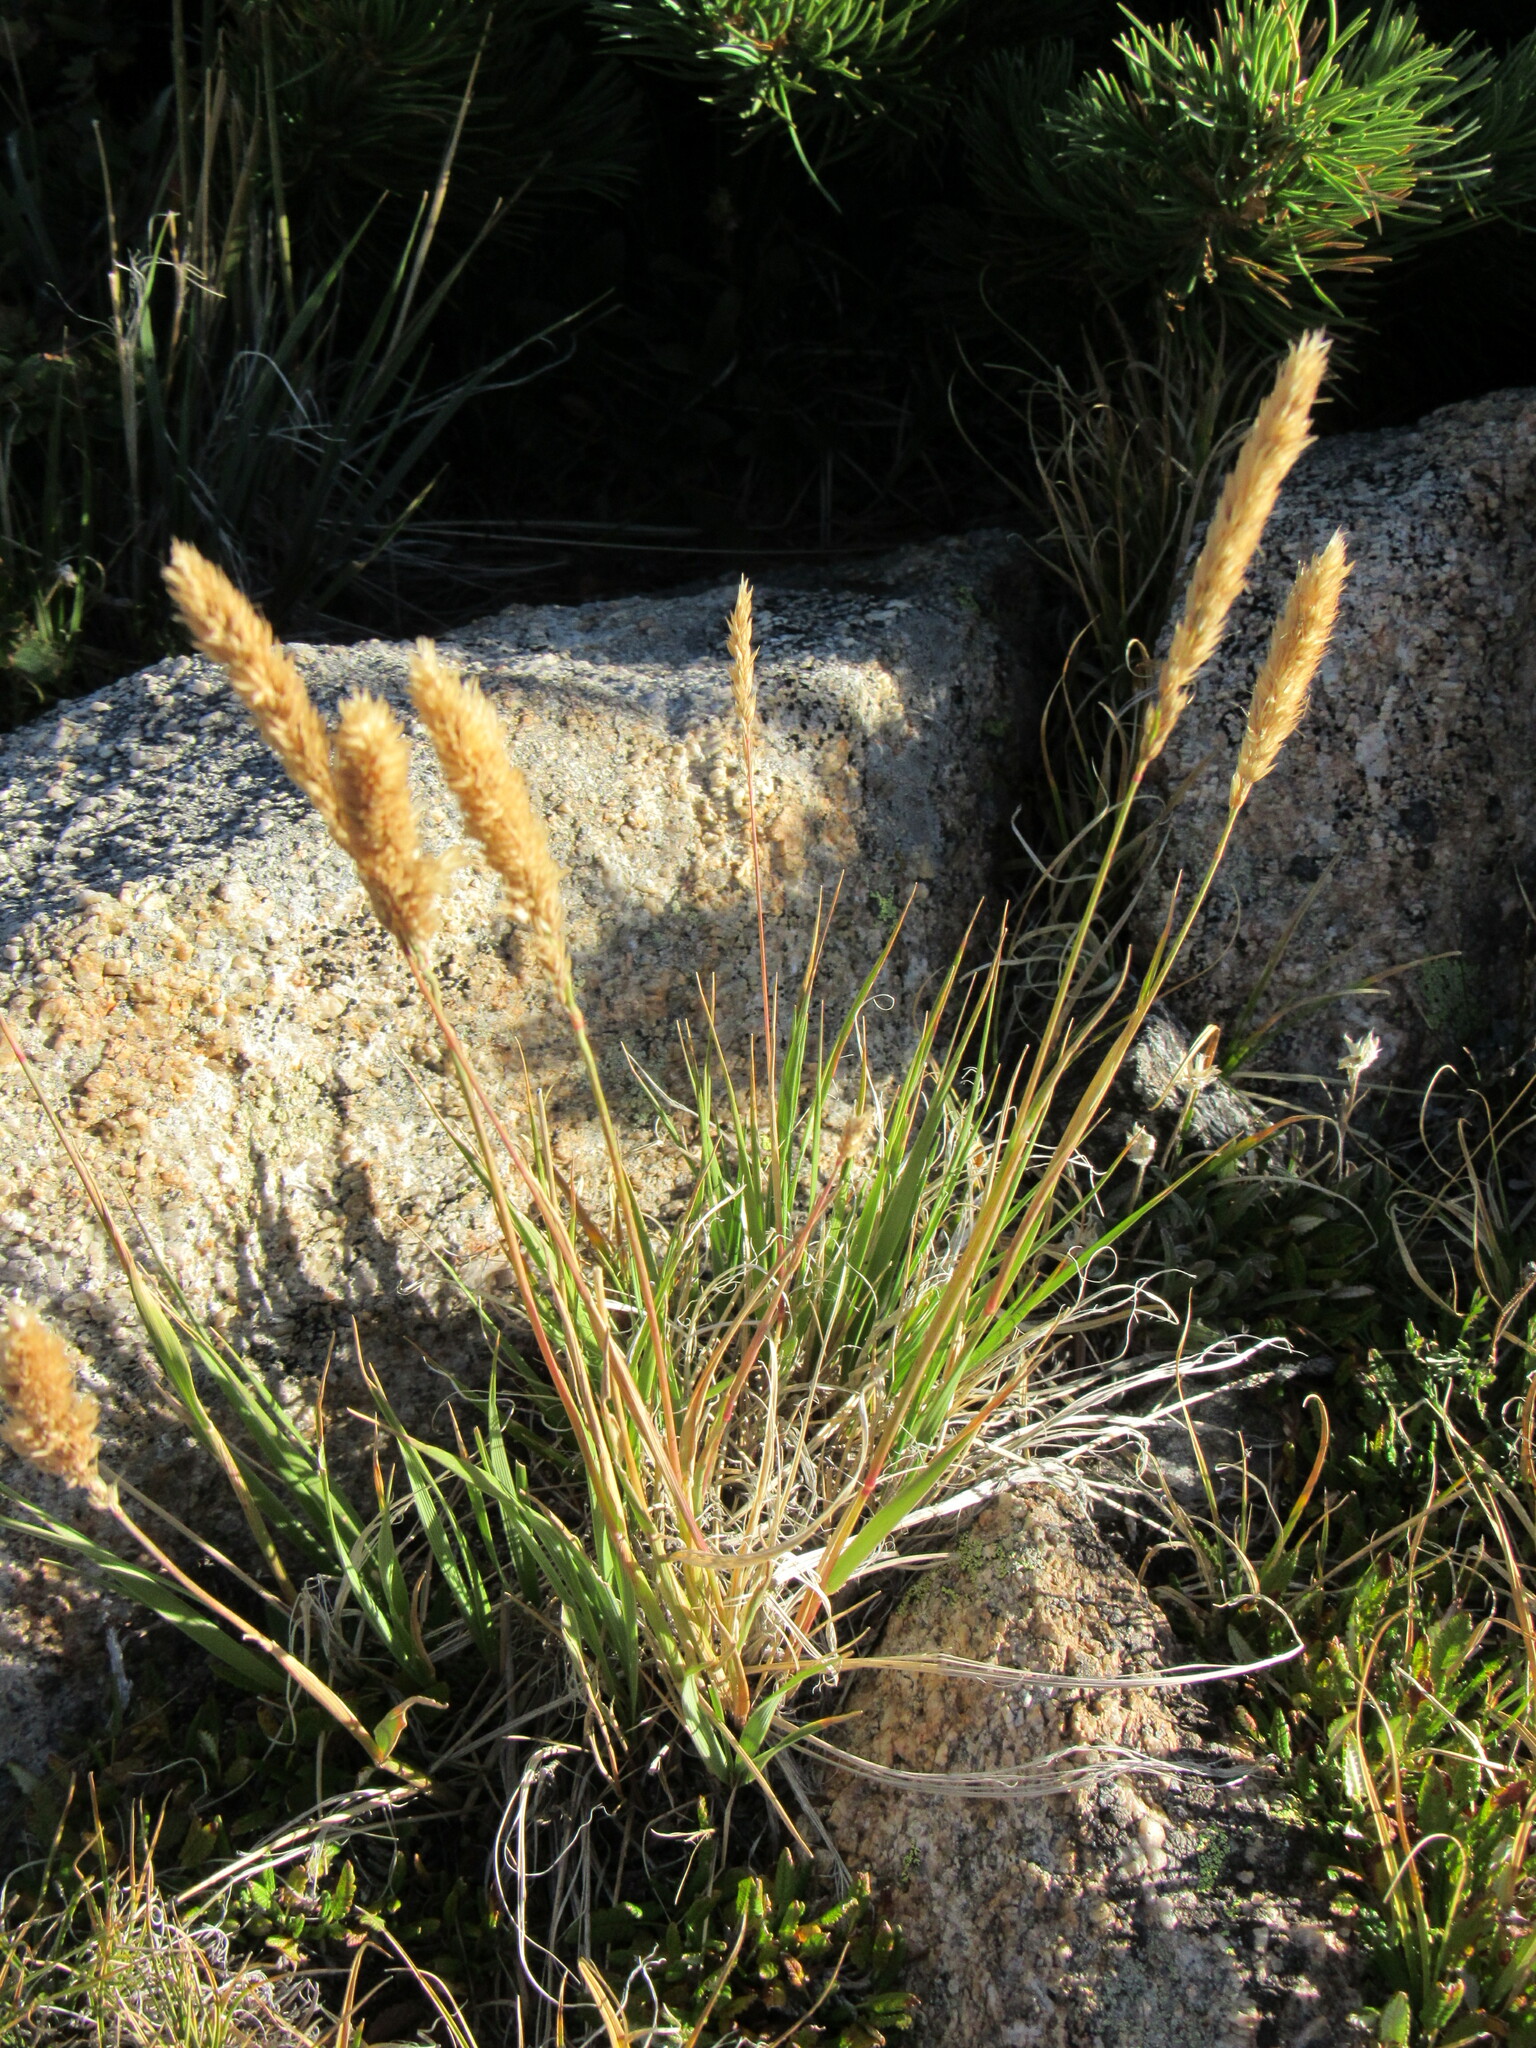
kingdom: Plantae
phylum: Tracheophyta
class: Liliopsida
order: Poales
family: Poaceae
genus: Koeleria
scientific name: Koeleria spicata
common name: Mountain trisetum
